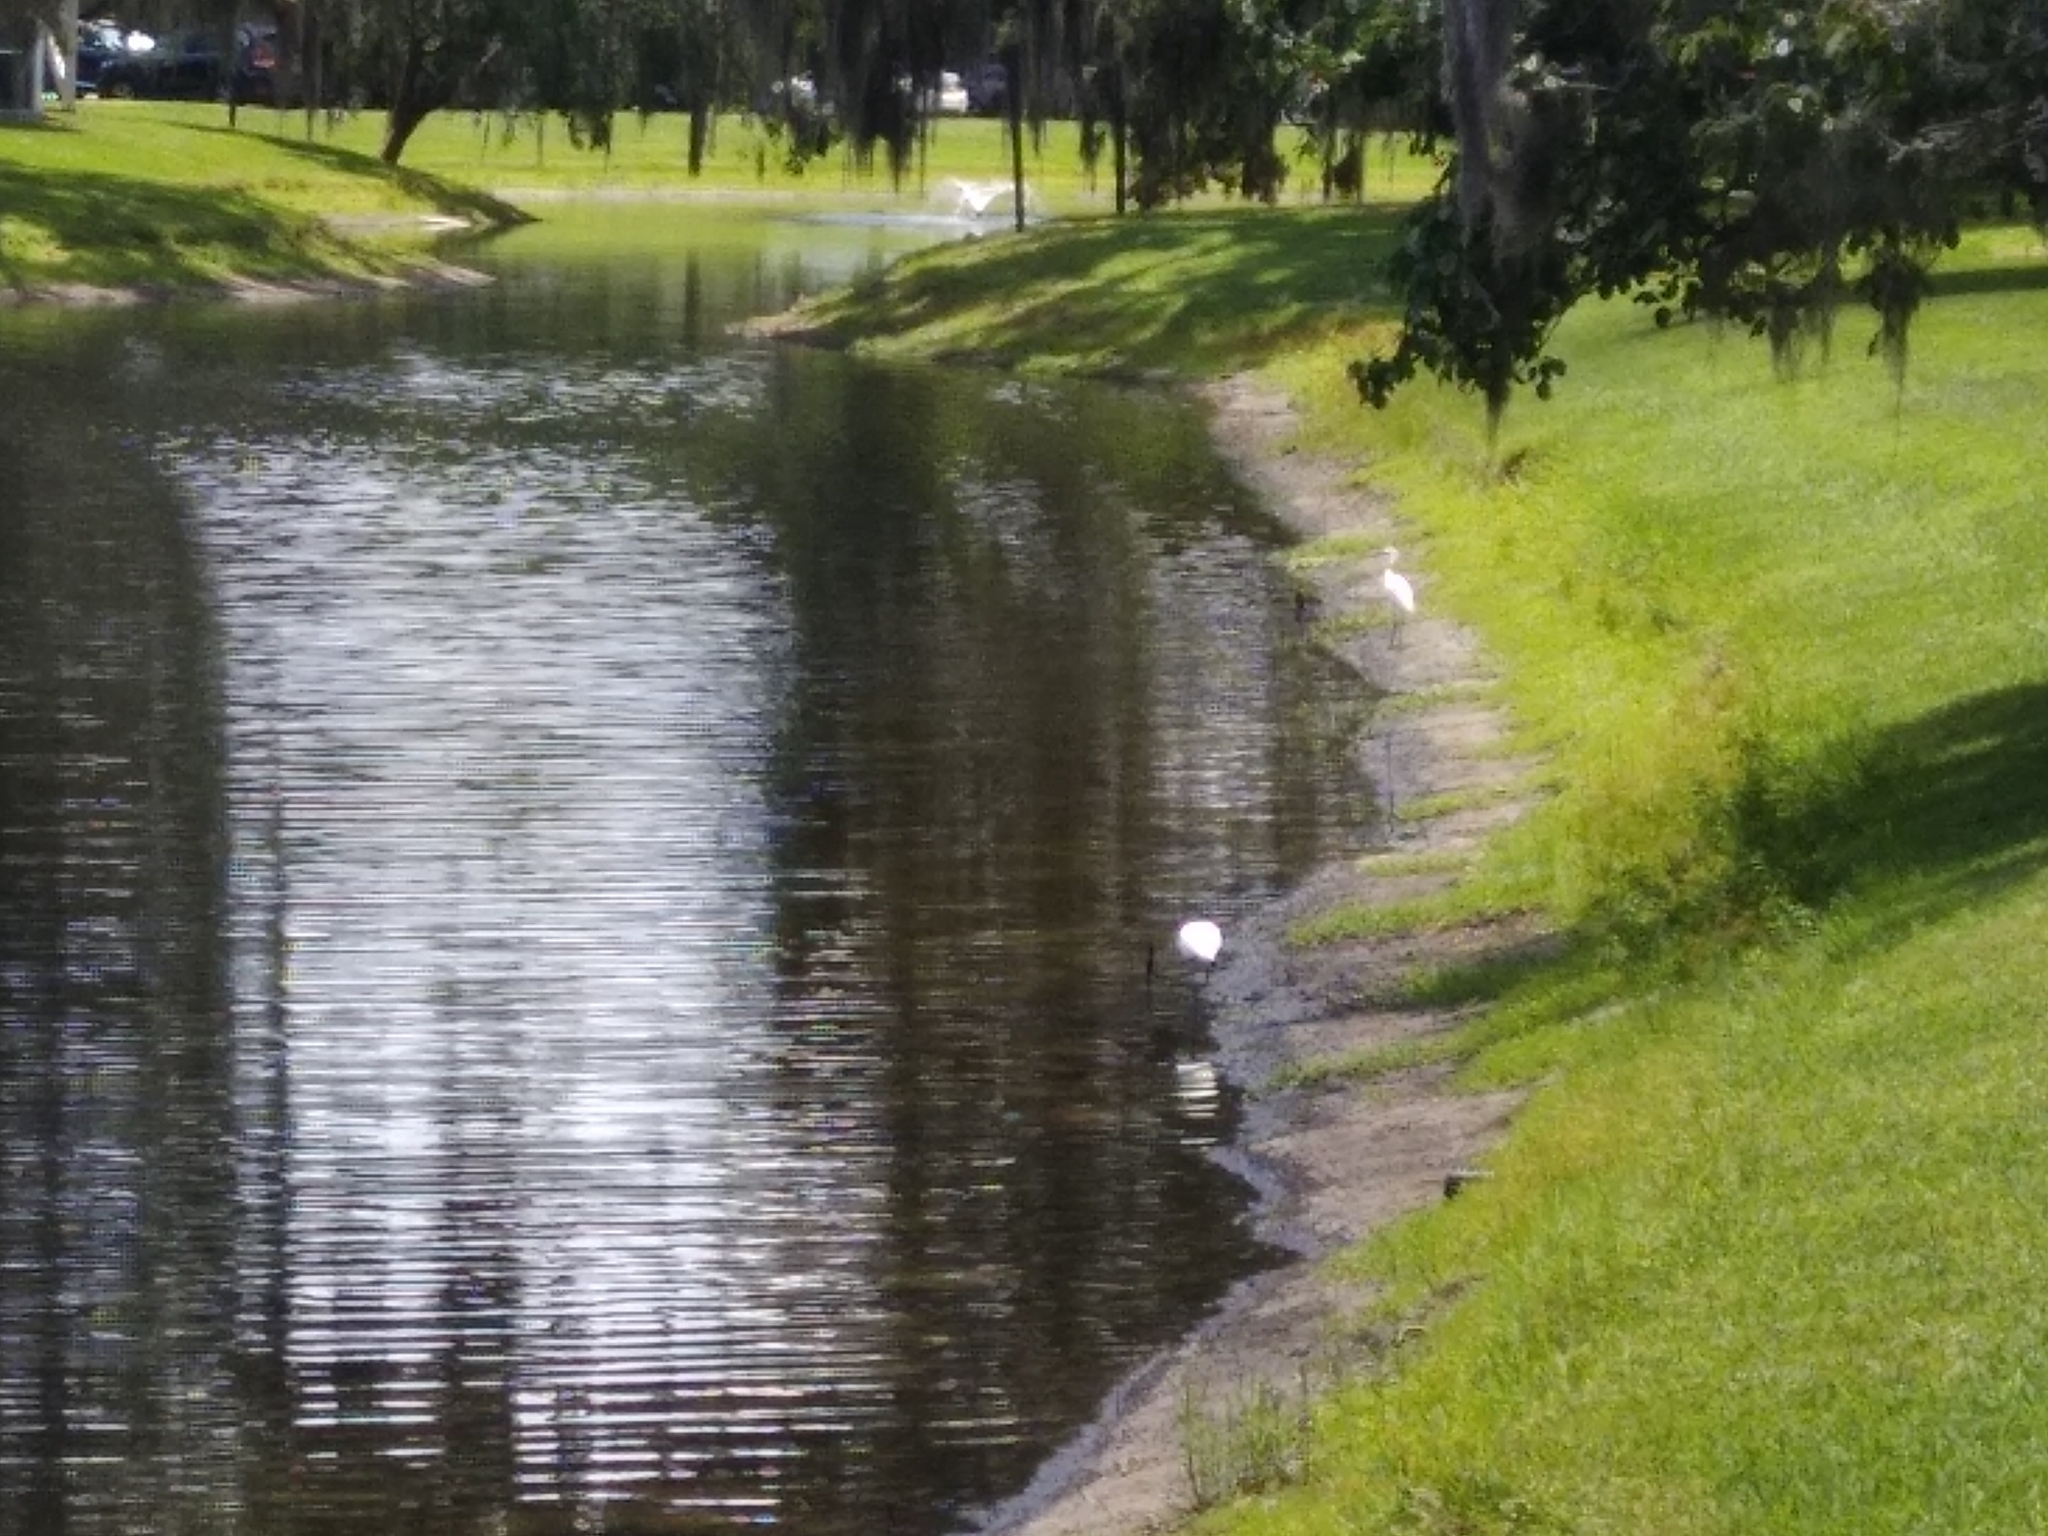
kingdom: Animalia
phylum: Chordata
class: Aves
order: Pelecaniformes
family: Threskiornithidae
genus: Eudocimus
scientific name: Eudocimus albus
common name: White ibis
